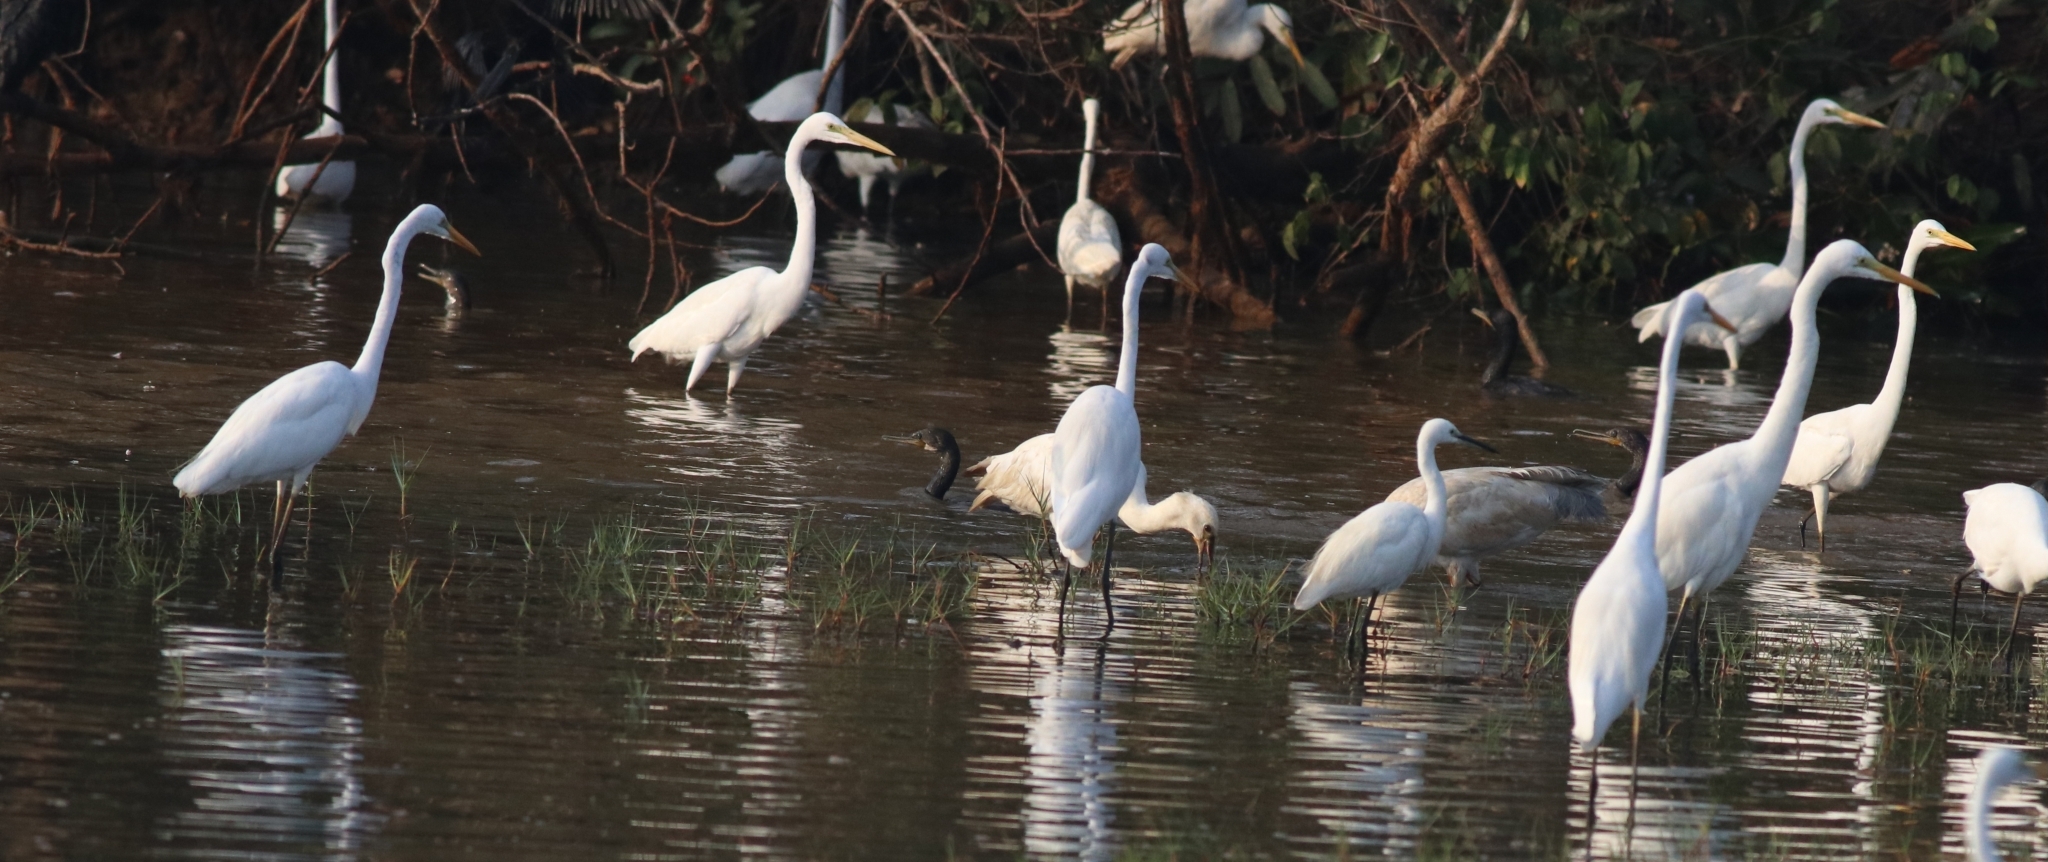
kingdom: Animalia
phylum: Chordata
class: Aves
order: Pelecaniformes
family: Ardeidae
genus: Ardea
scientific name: Ardea alba
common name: Great egret
